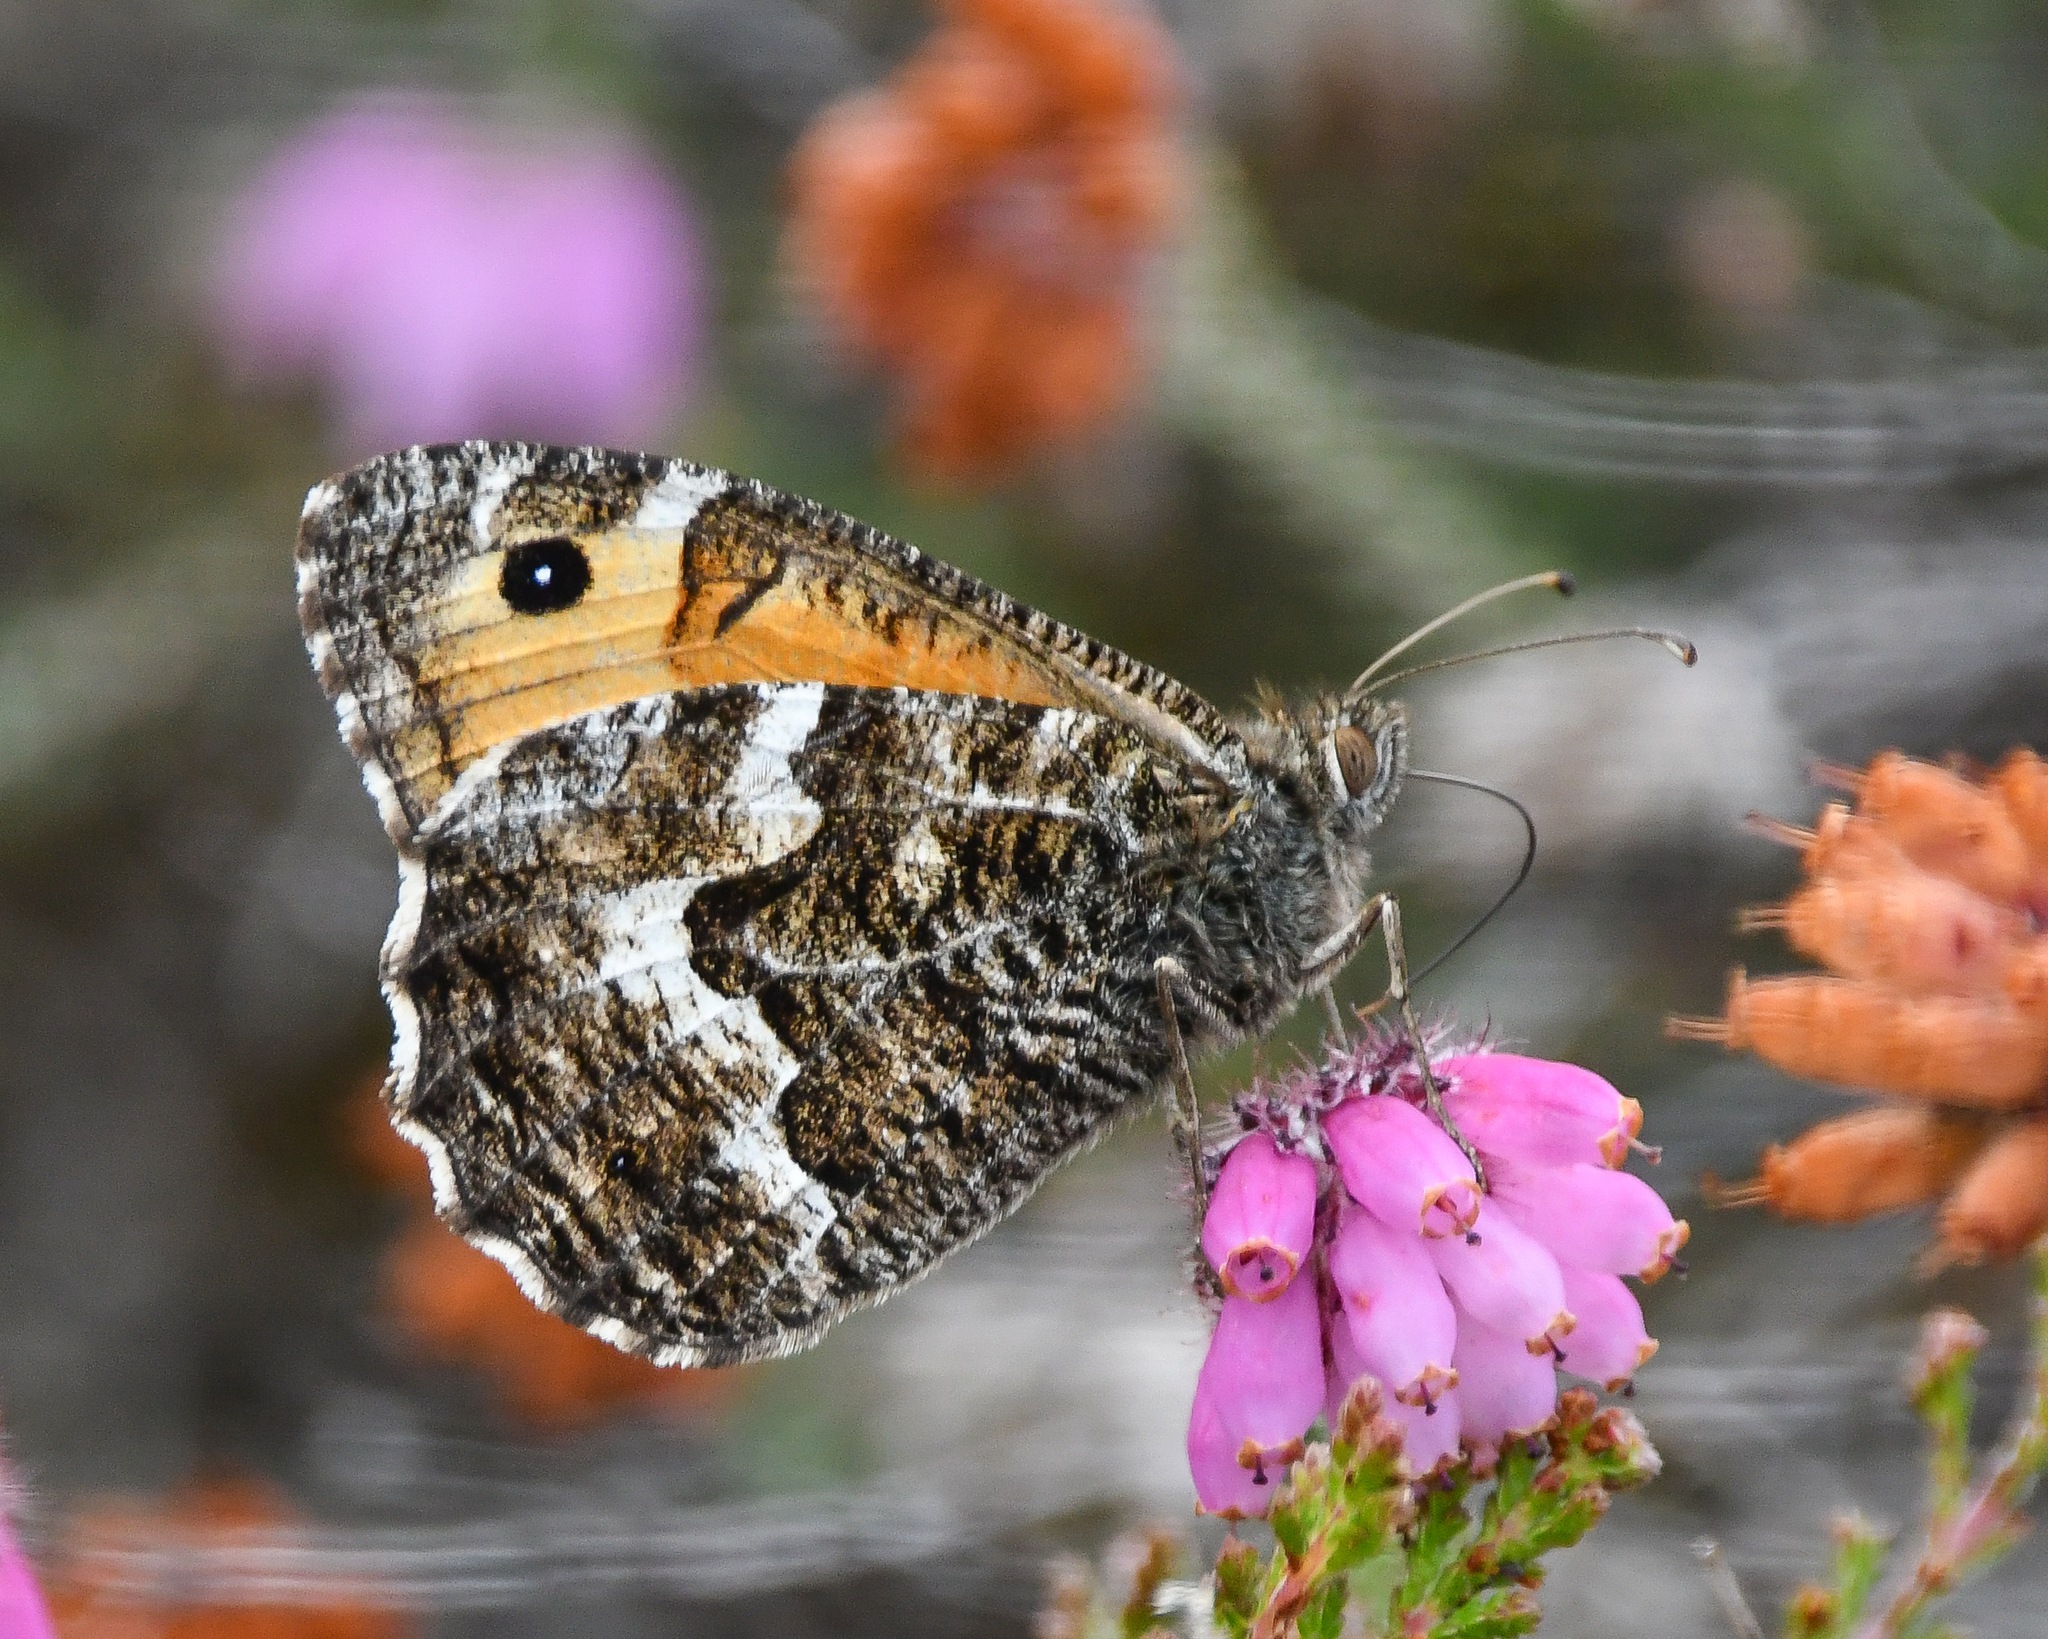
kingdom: Animalia
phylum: Arthropoda
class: Insecta
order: Lepidoptera
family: Nymphalidae
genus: Hipparchia
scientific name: Hipparchia semele
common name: Grayling
